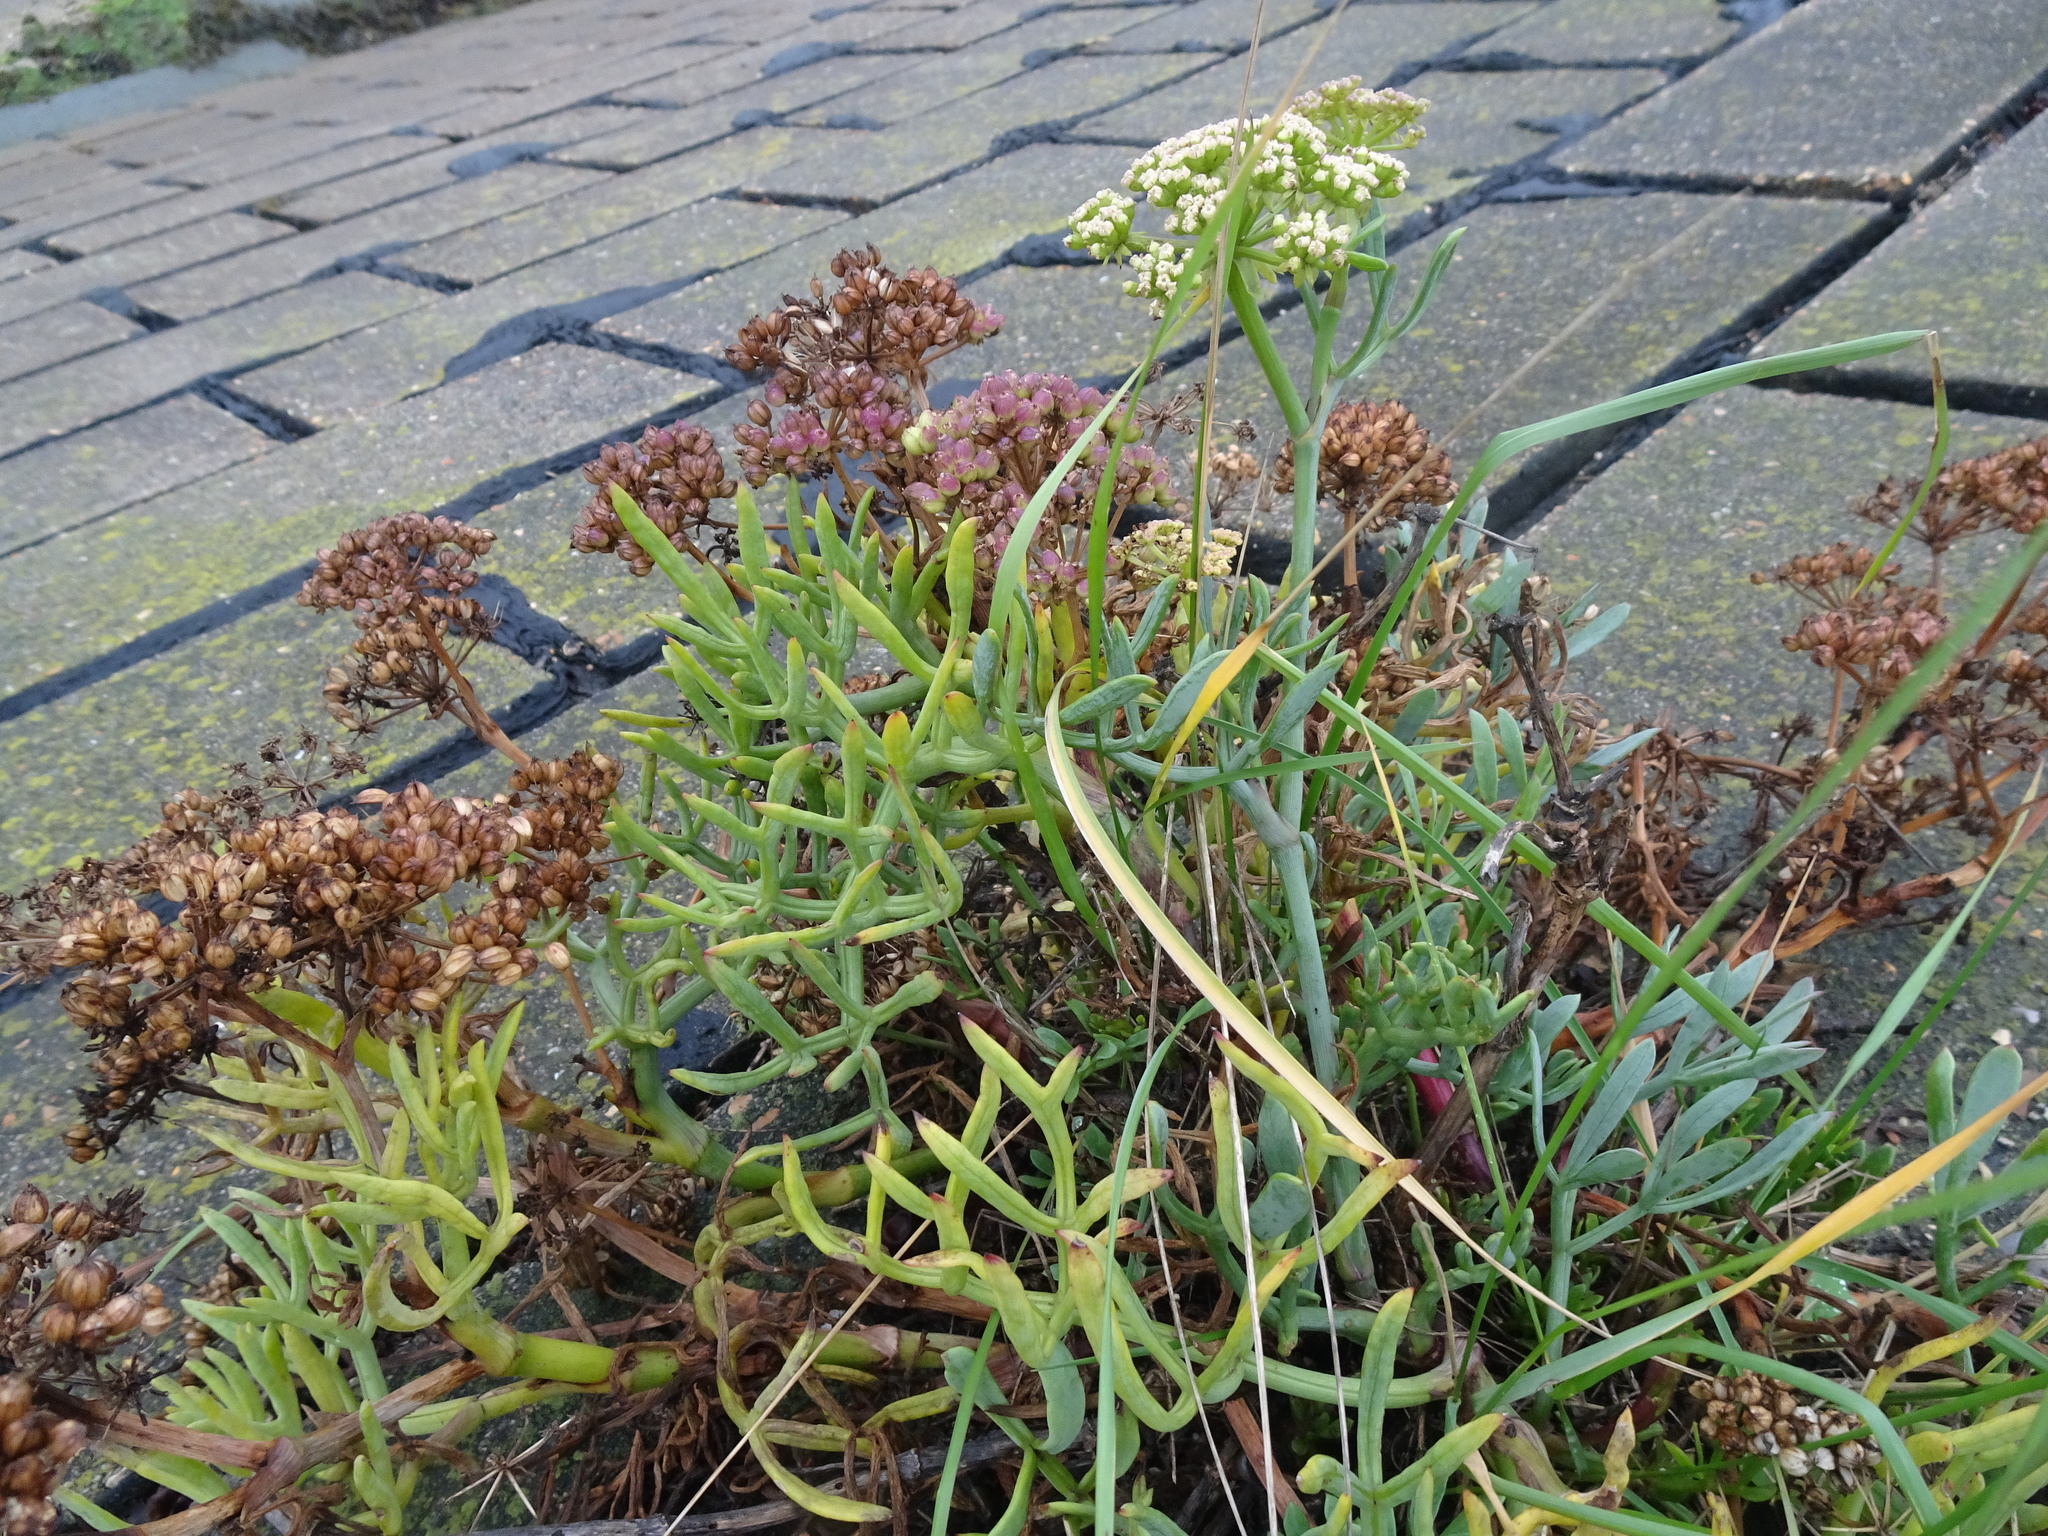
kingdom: Plantae
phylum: Tracheophyta
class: Magnoliopsida
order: Apiales
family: Apiaceae
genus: Crithmum
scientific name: Crithmum maritimum
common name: Rock samphire
